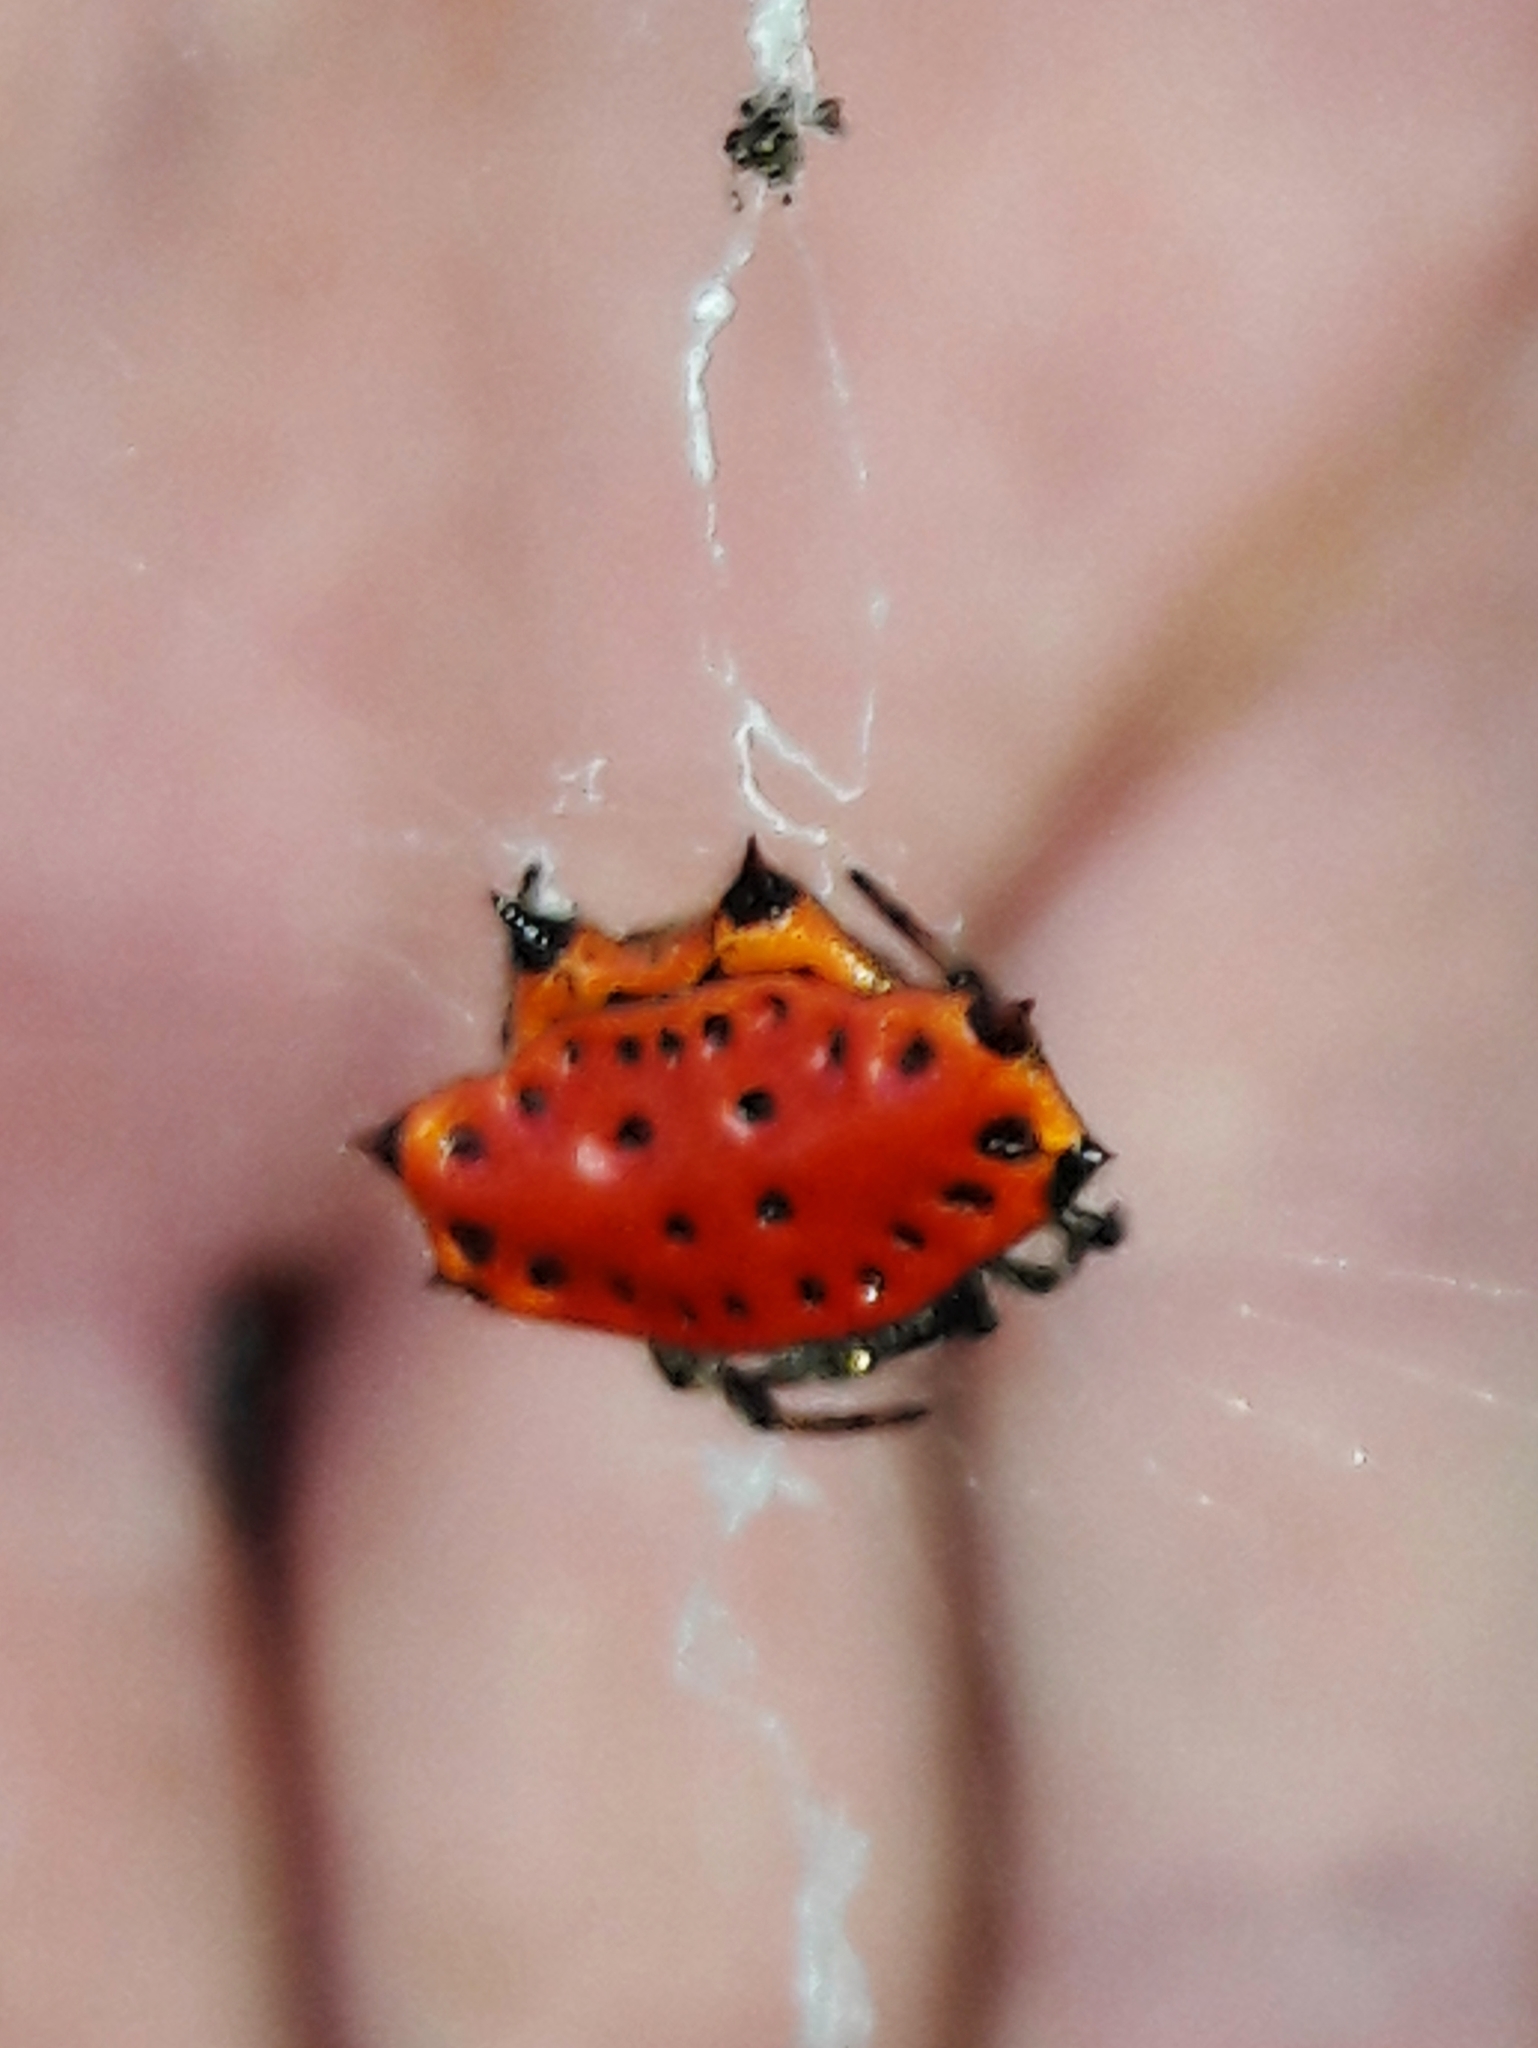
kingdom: Animalia
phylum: Arthropoda
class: Arachnida
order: Araneae
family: Araneidae
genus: Gasteracantha
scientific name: Gasteracantha cancriformis
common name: Orb weavers
